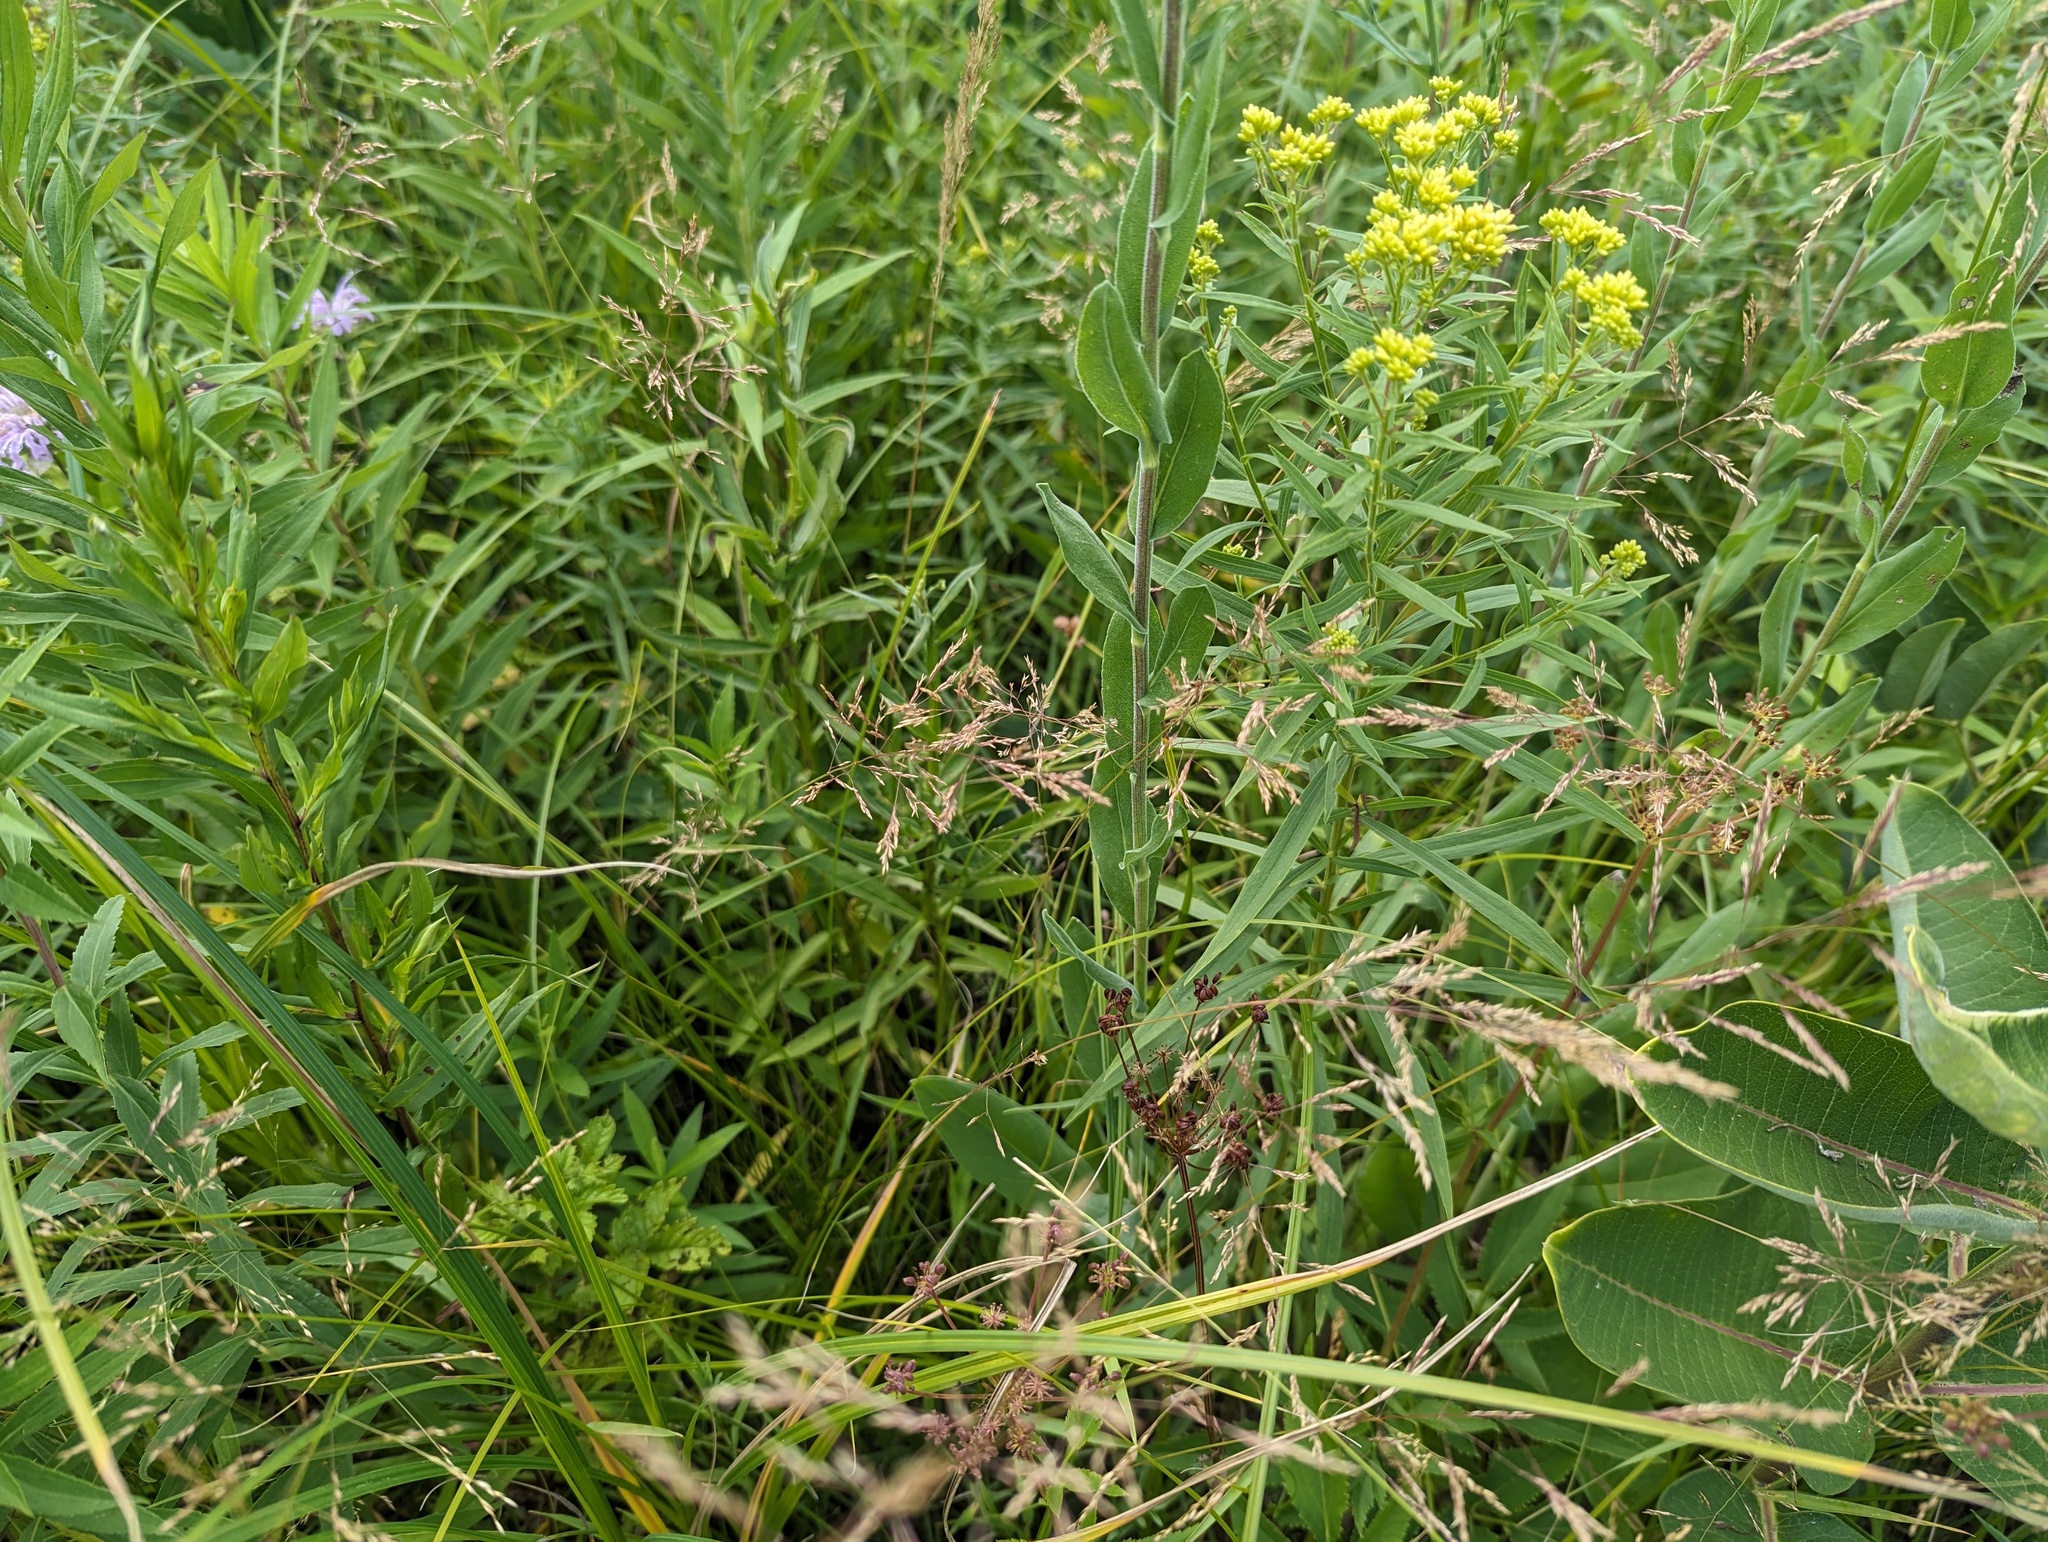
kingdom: Plantae
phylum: Tracheophyta
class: Magnoliopsida
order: Asterales
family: Asteraceae
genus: Solidago
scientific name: Solidago rigida
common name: Rigid goldenrod
